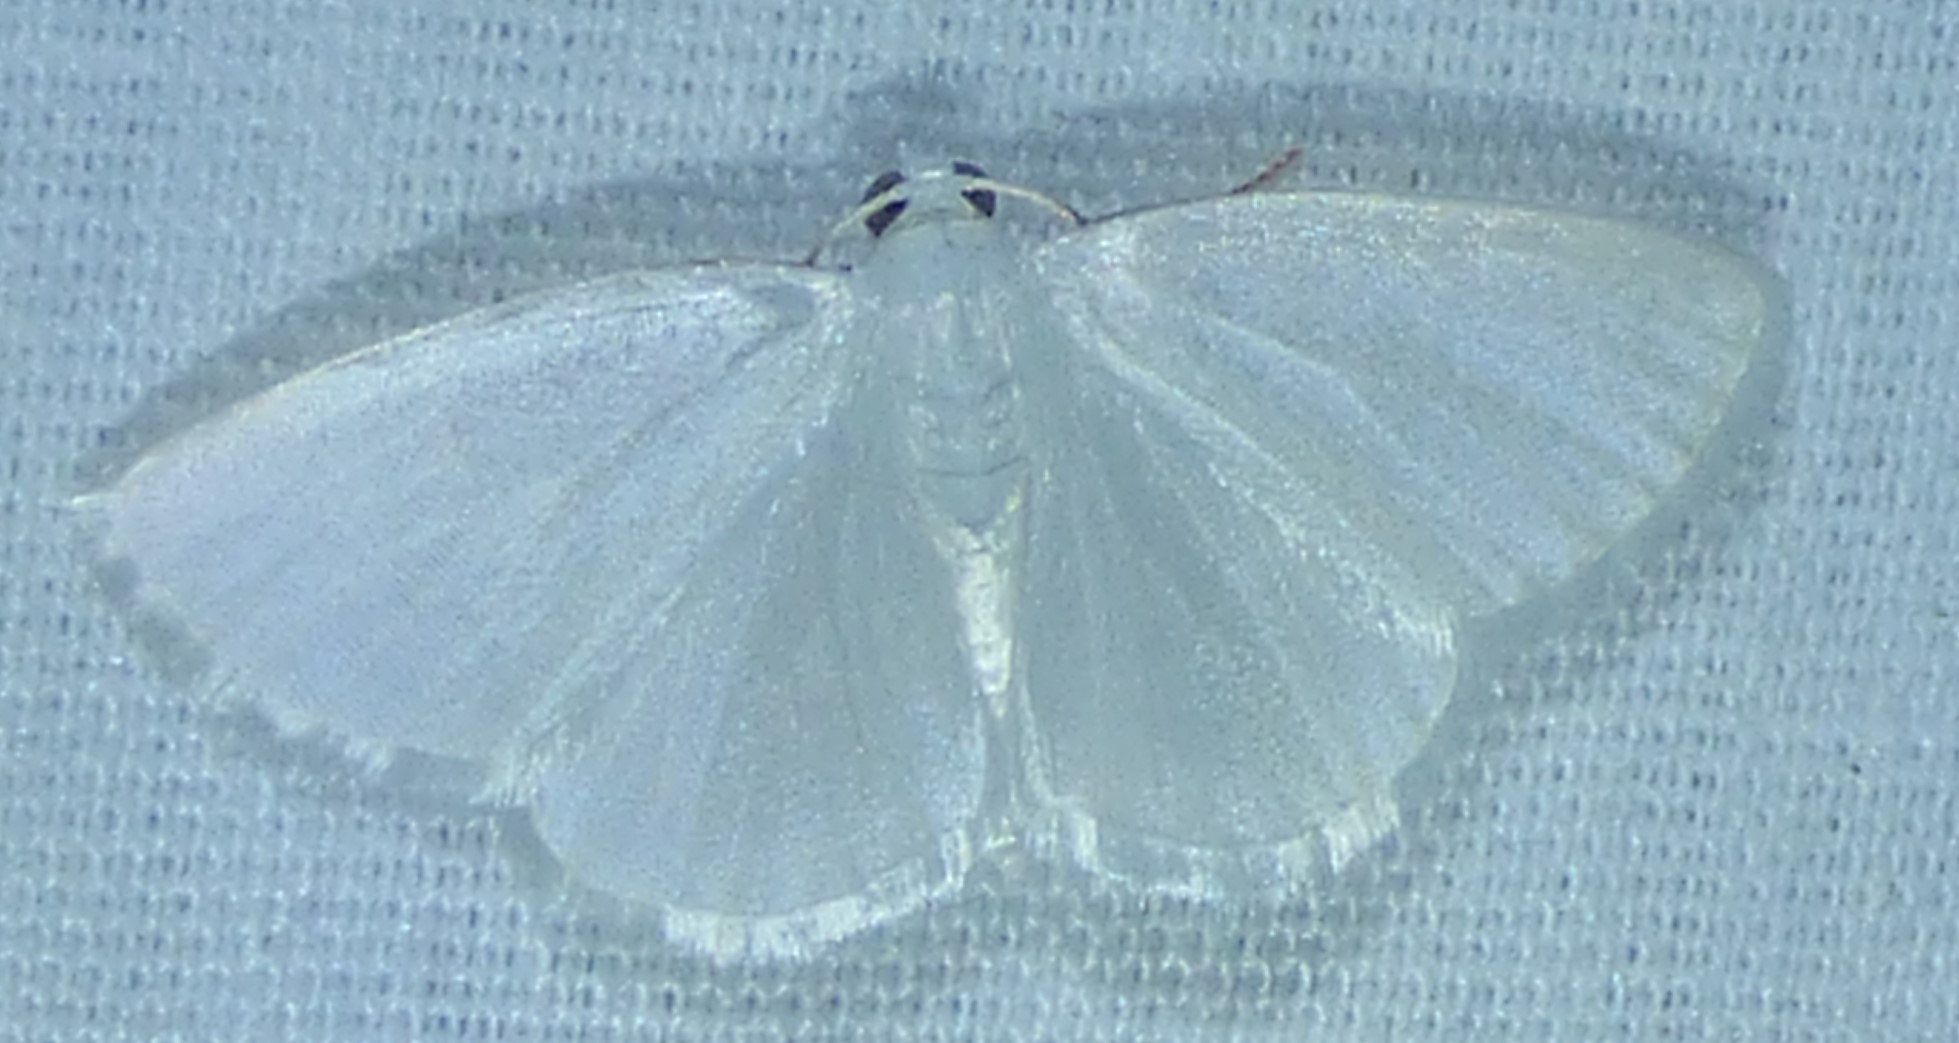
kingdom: Animalia
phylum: Arthropoda
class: Insecta
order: Lepidoptera
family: Geometridae
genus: Lomographa
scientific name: Lomographa vestaliata
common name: White spring moth
